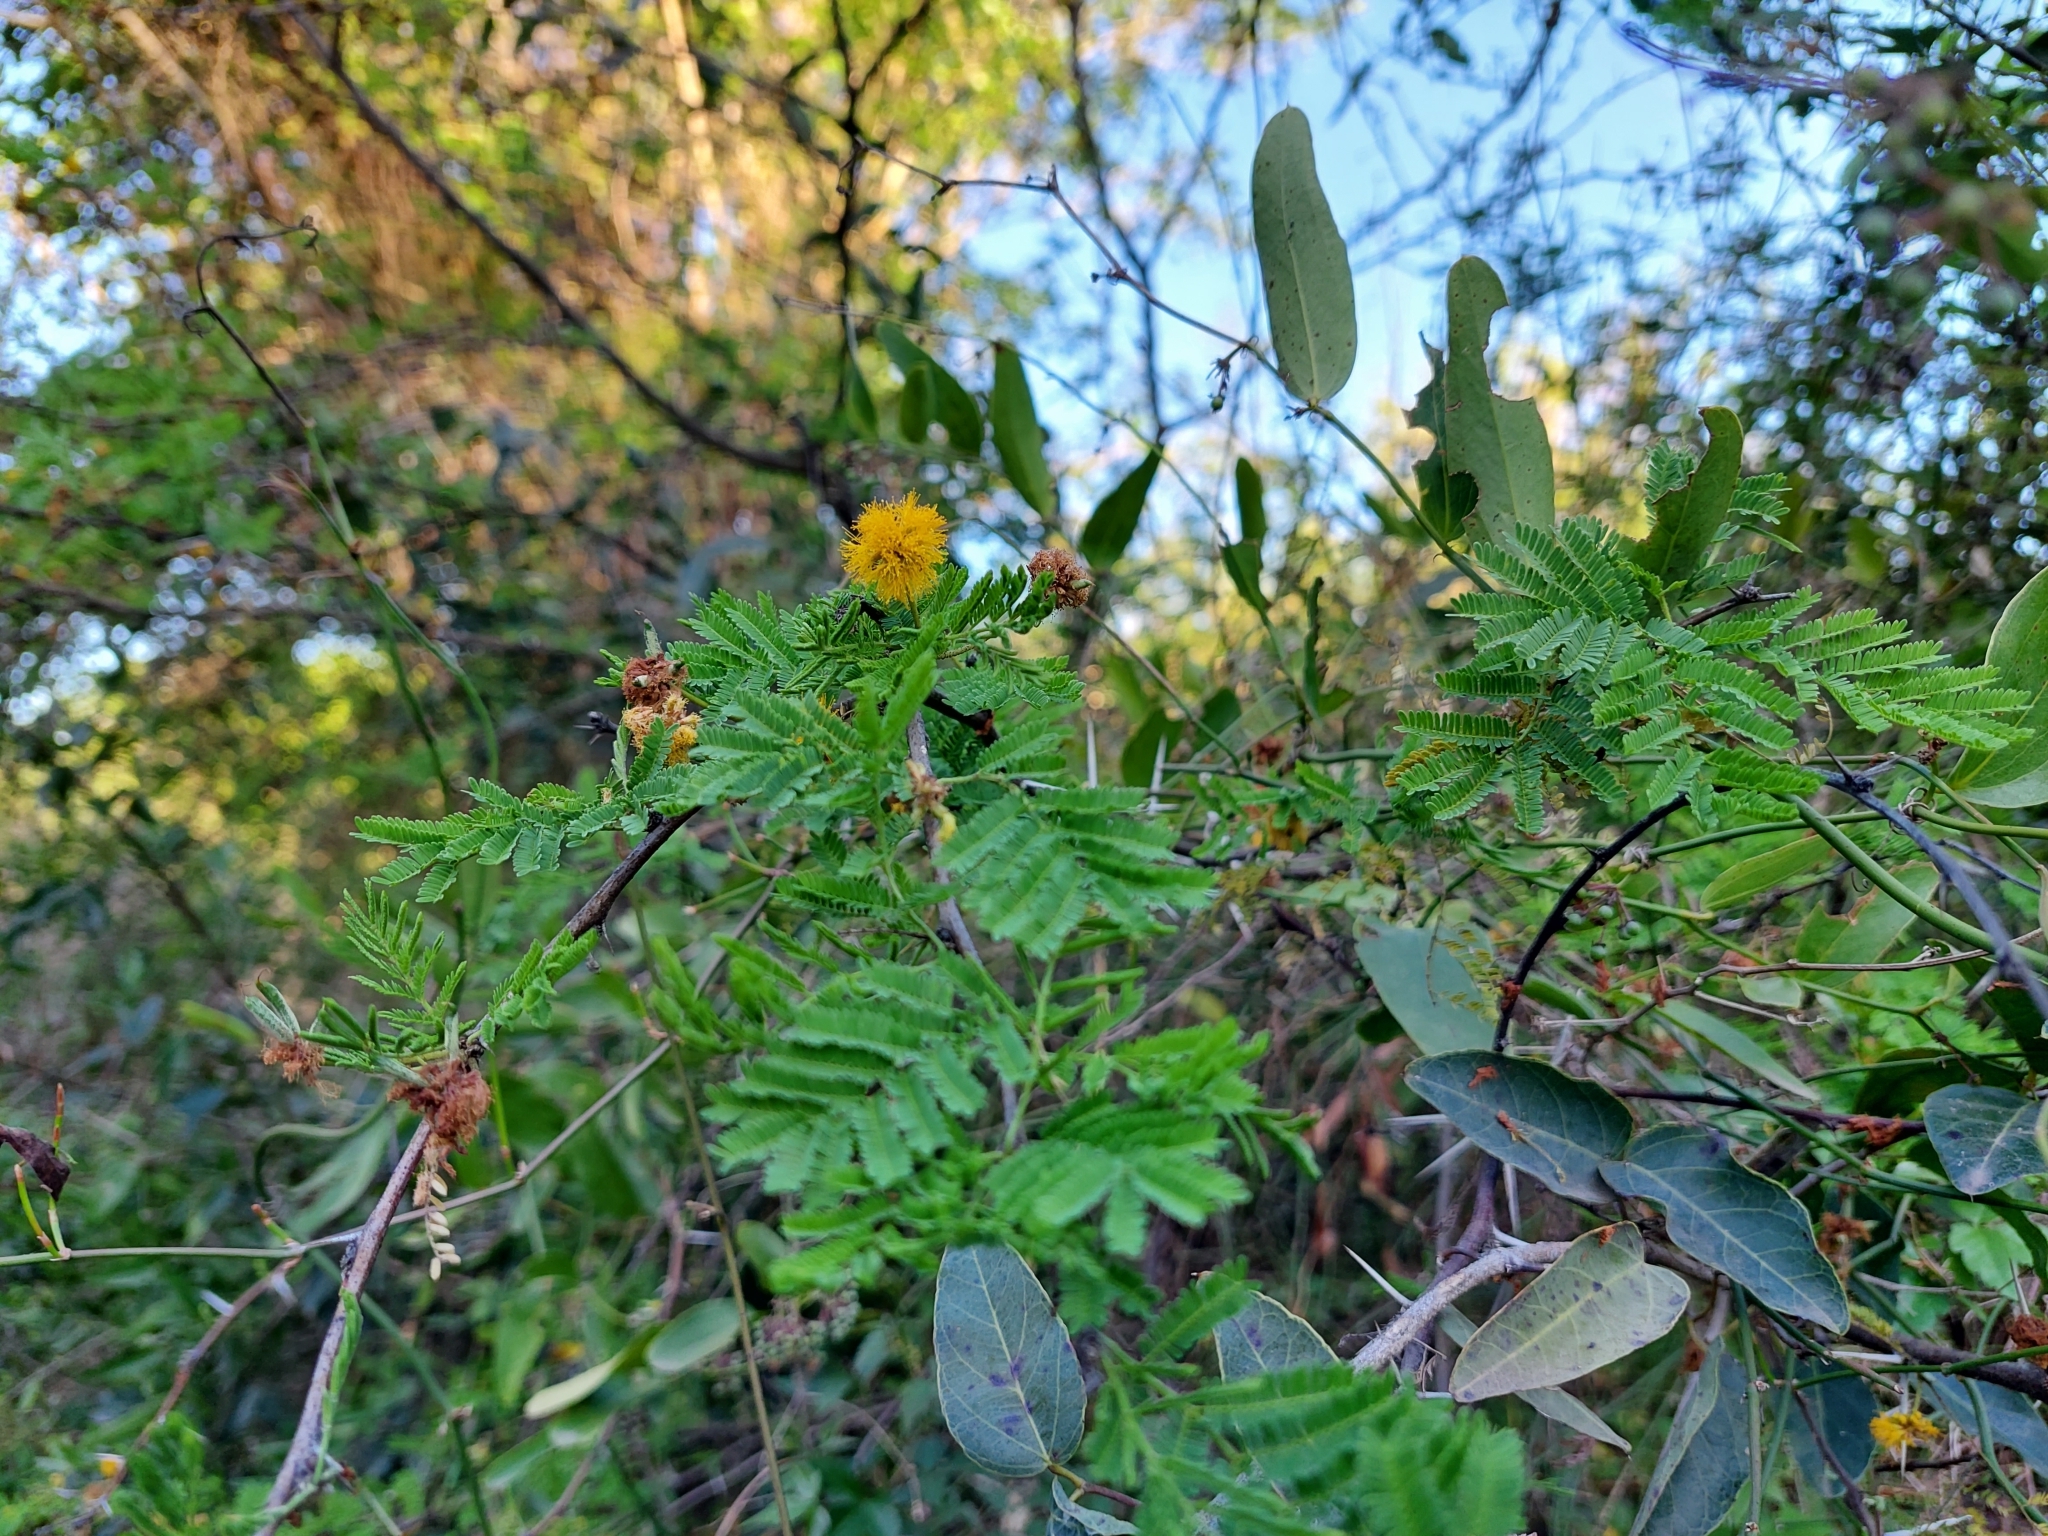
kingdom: Plantae
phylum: Tracheophyta
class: Magnoliopsida
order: Fabales
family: Fabaceae
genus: Vachellia
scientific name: Vachellia caven
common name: Roman cassie
